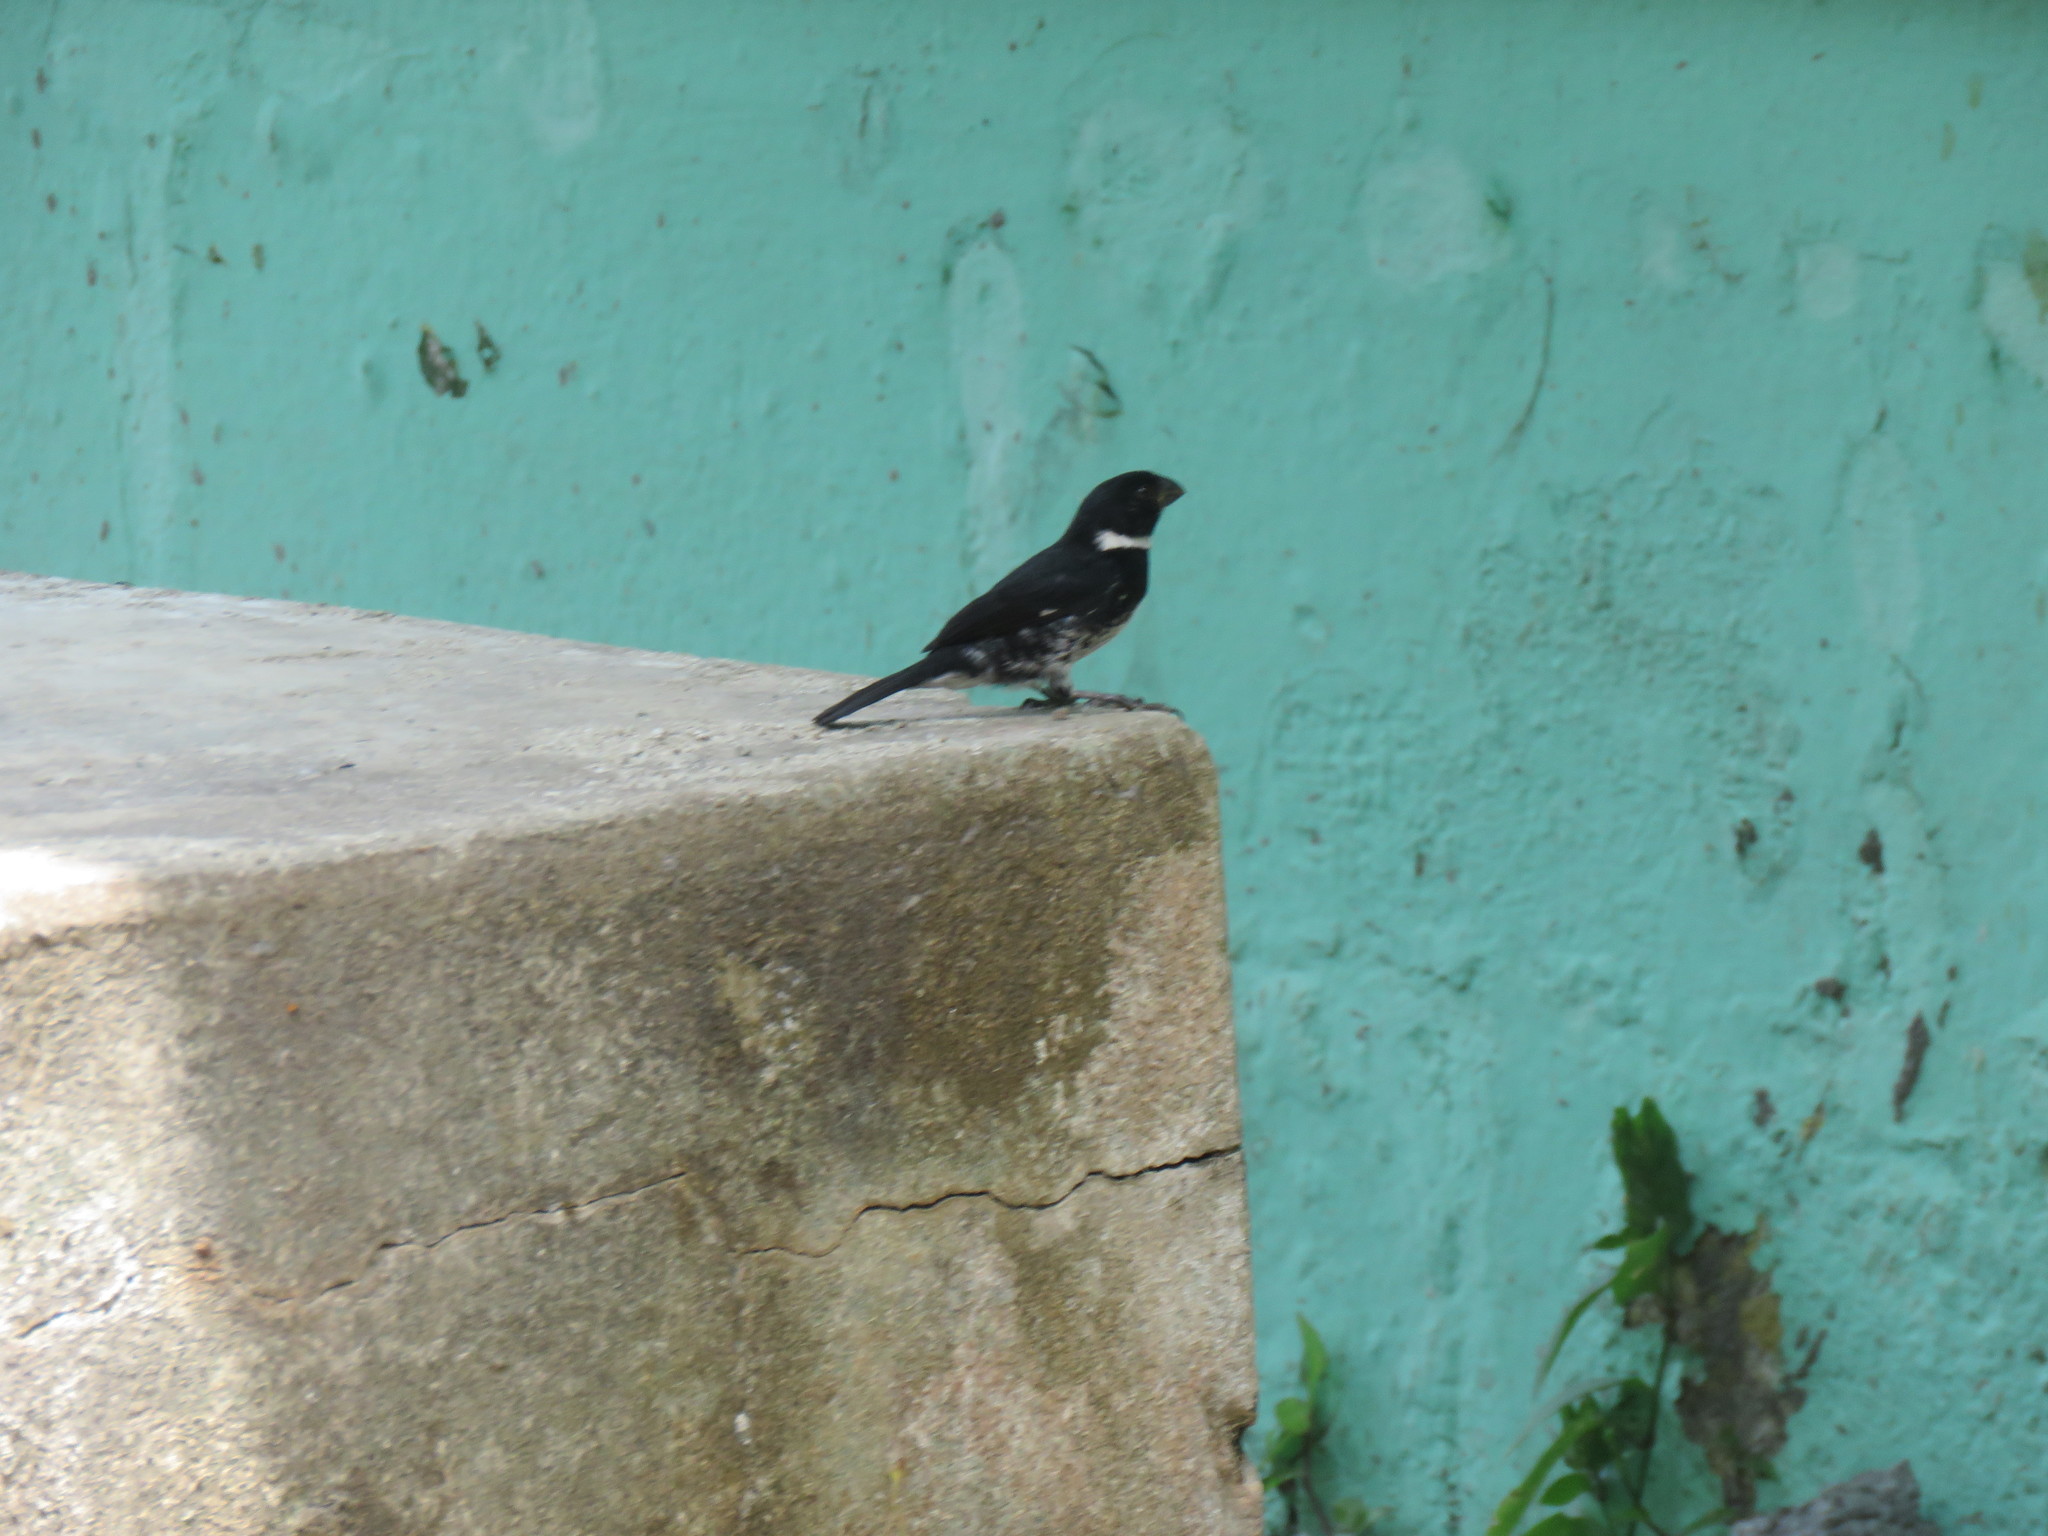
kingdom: Animalia
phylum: Chordata
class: Aves
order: Passeriformes
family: Thraupidae
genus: Sporophila
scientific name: Sporophila corvina
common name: Variable seedeater
